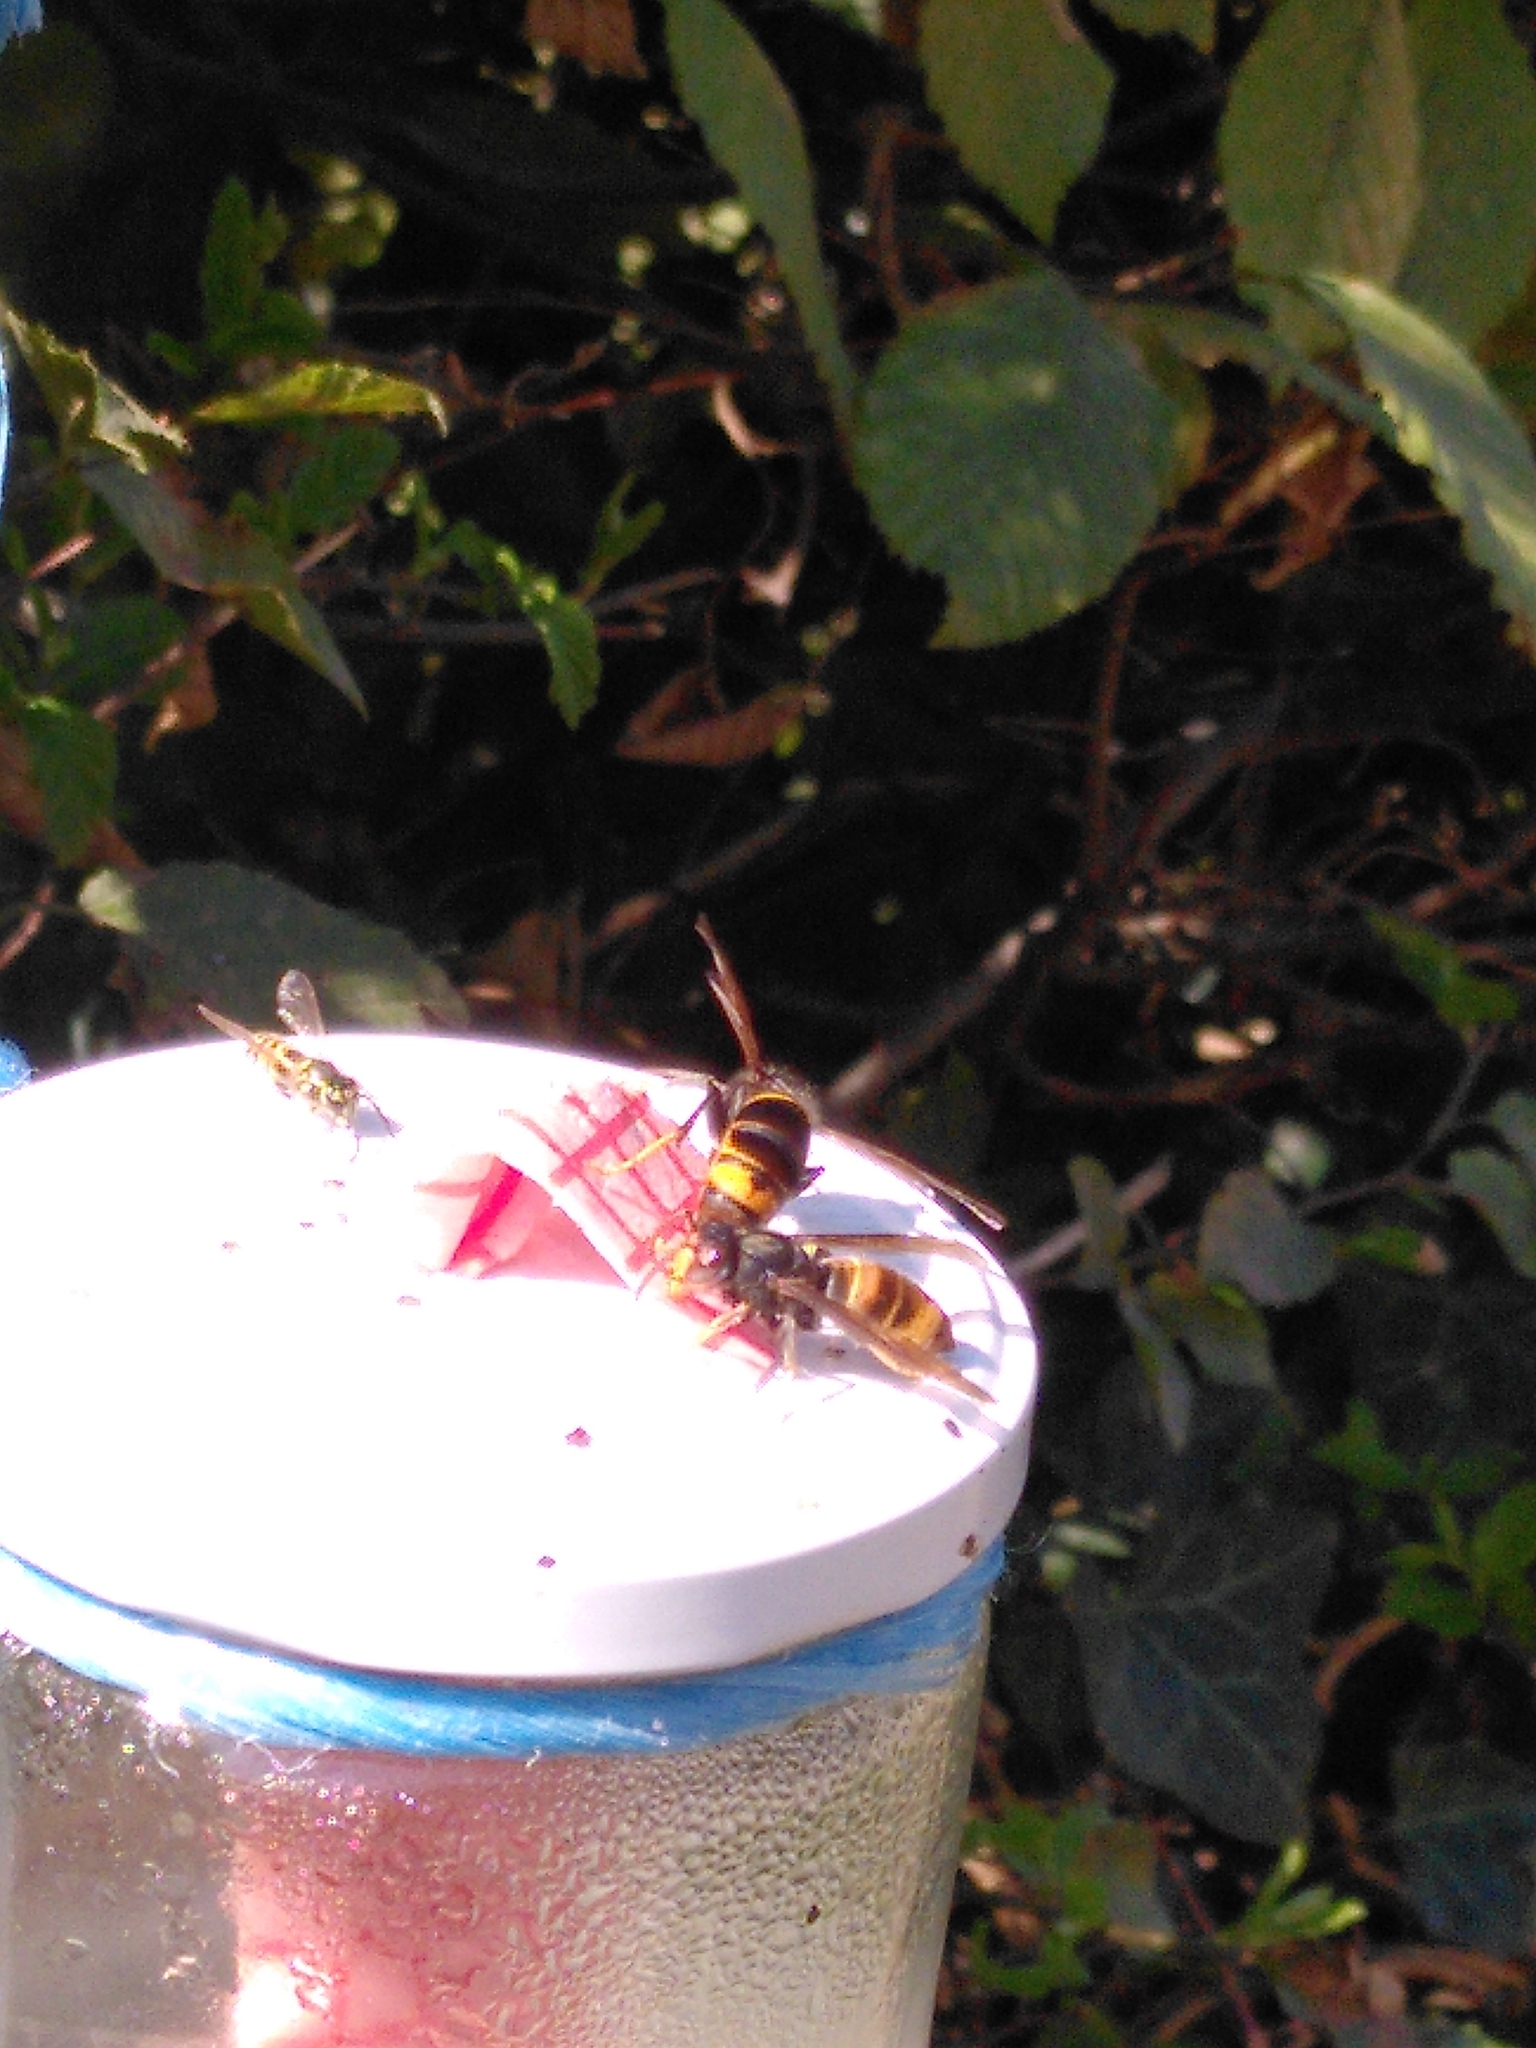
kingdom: Animalia
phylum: Arthropoda
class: Insecta
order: Hymenoptera
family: Vespidae
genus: Vespa
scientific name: Vespa velutina
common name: Asian hornet
